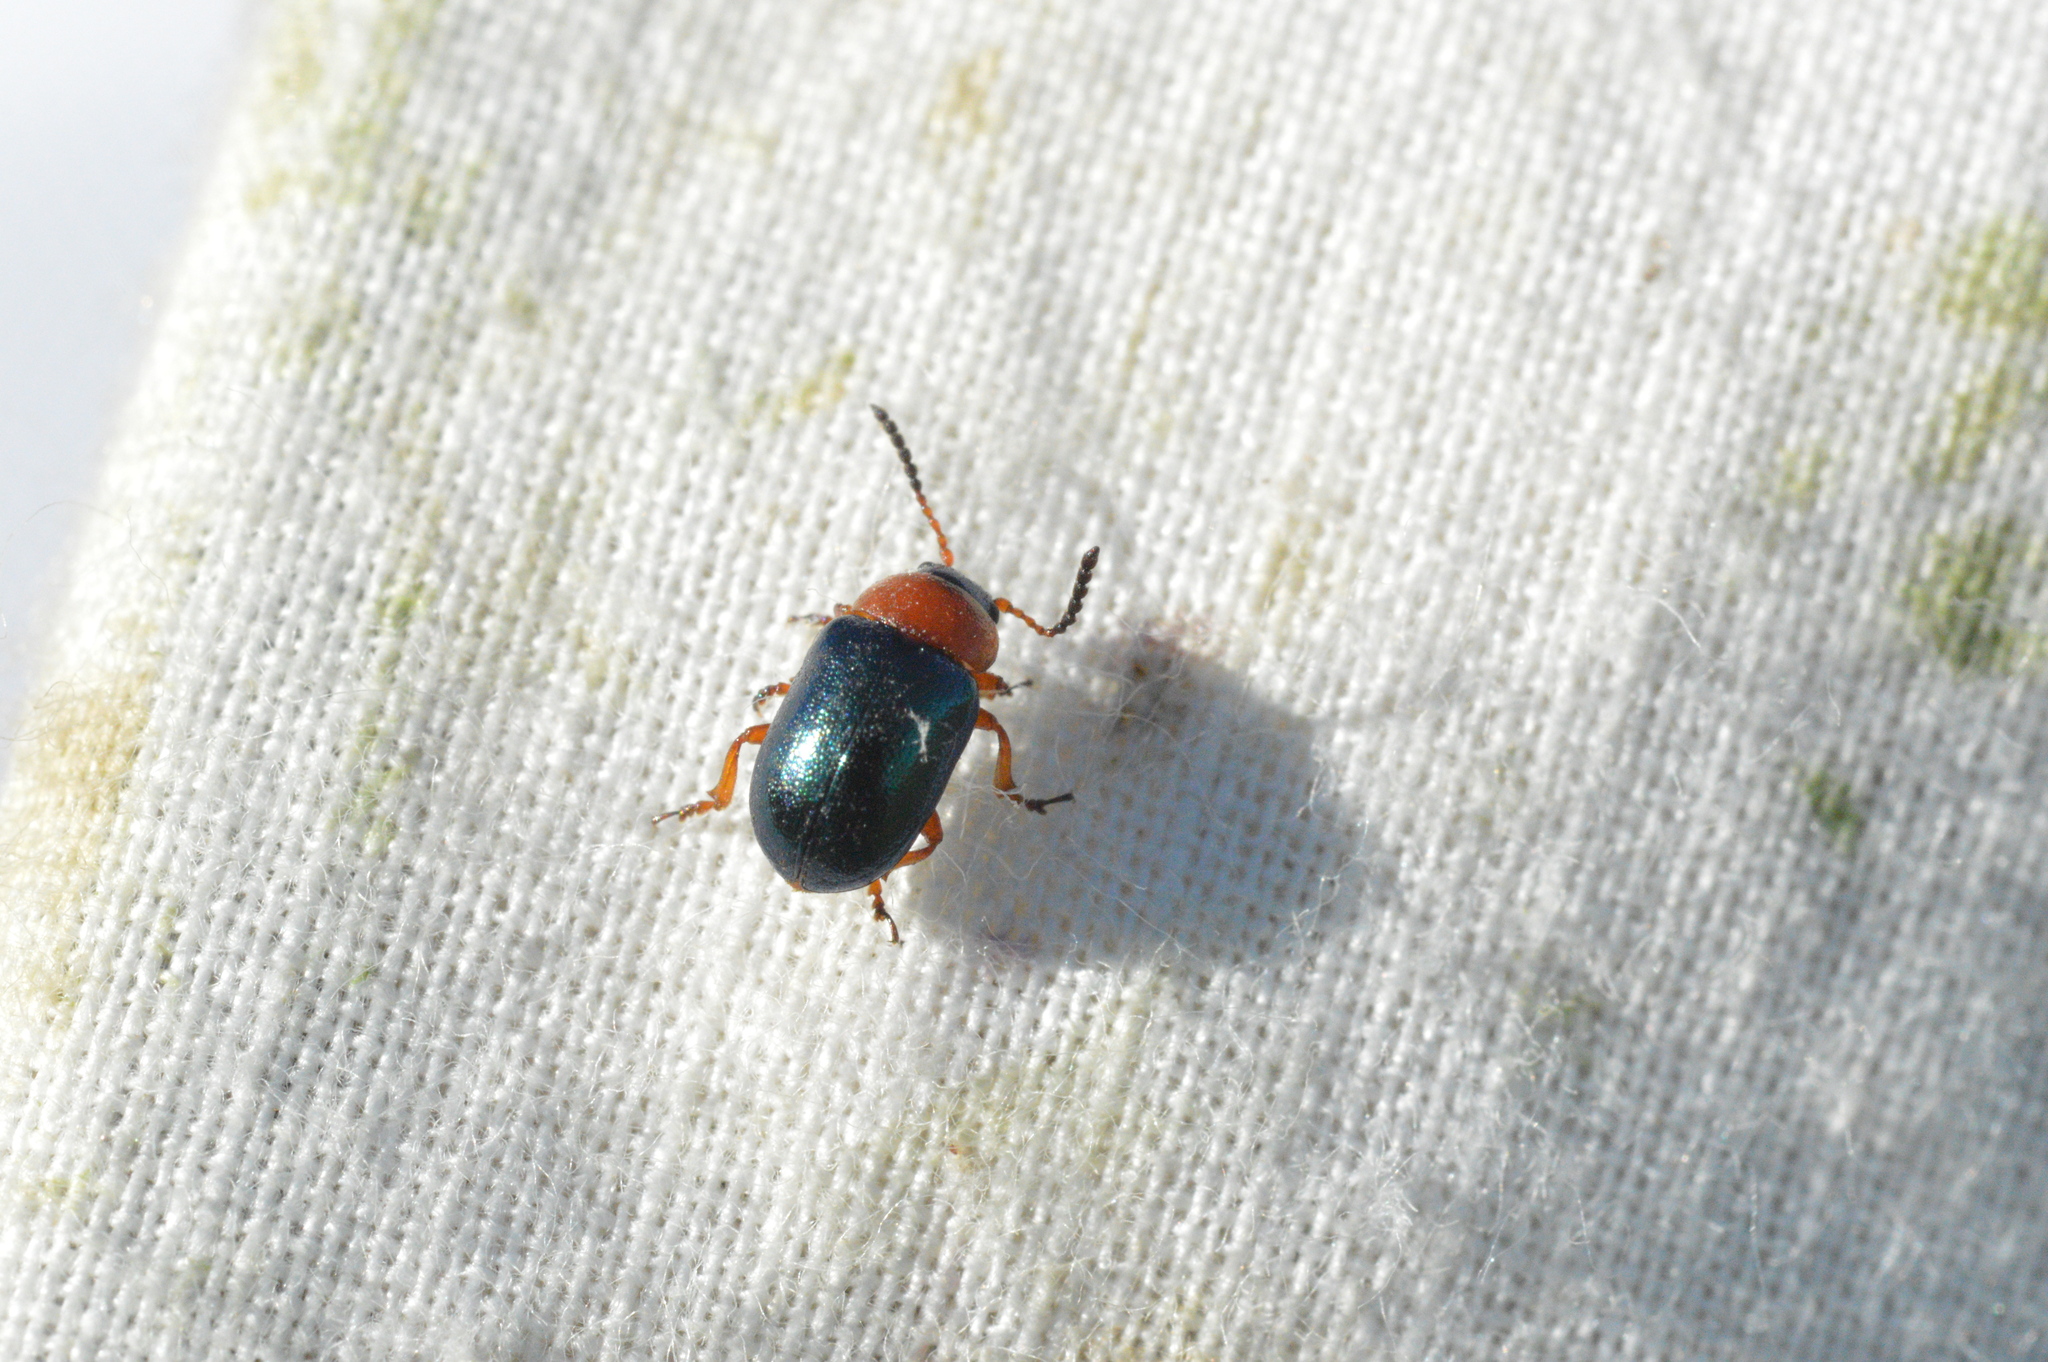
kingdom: Animalia
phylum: Arthropoda
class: Insecta
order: Coleoptera
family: Chrysomelidae
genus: Gastrophysa
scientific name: Gastrophysa polygoni
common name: Knotweed leaf beetle
